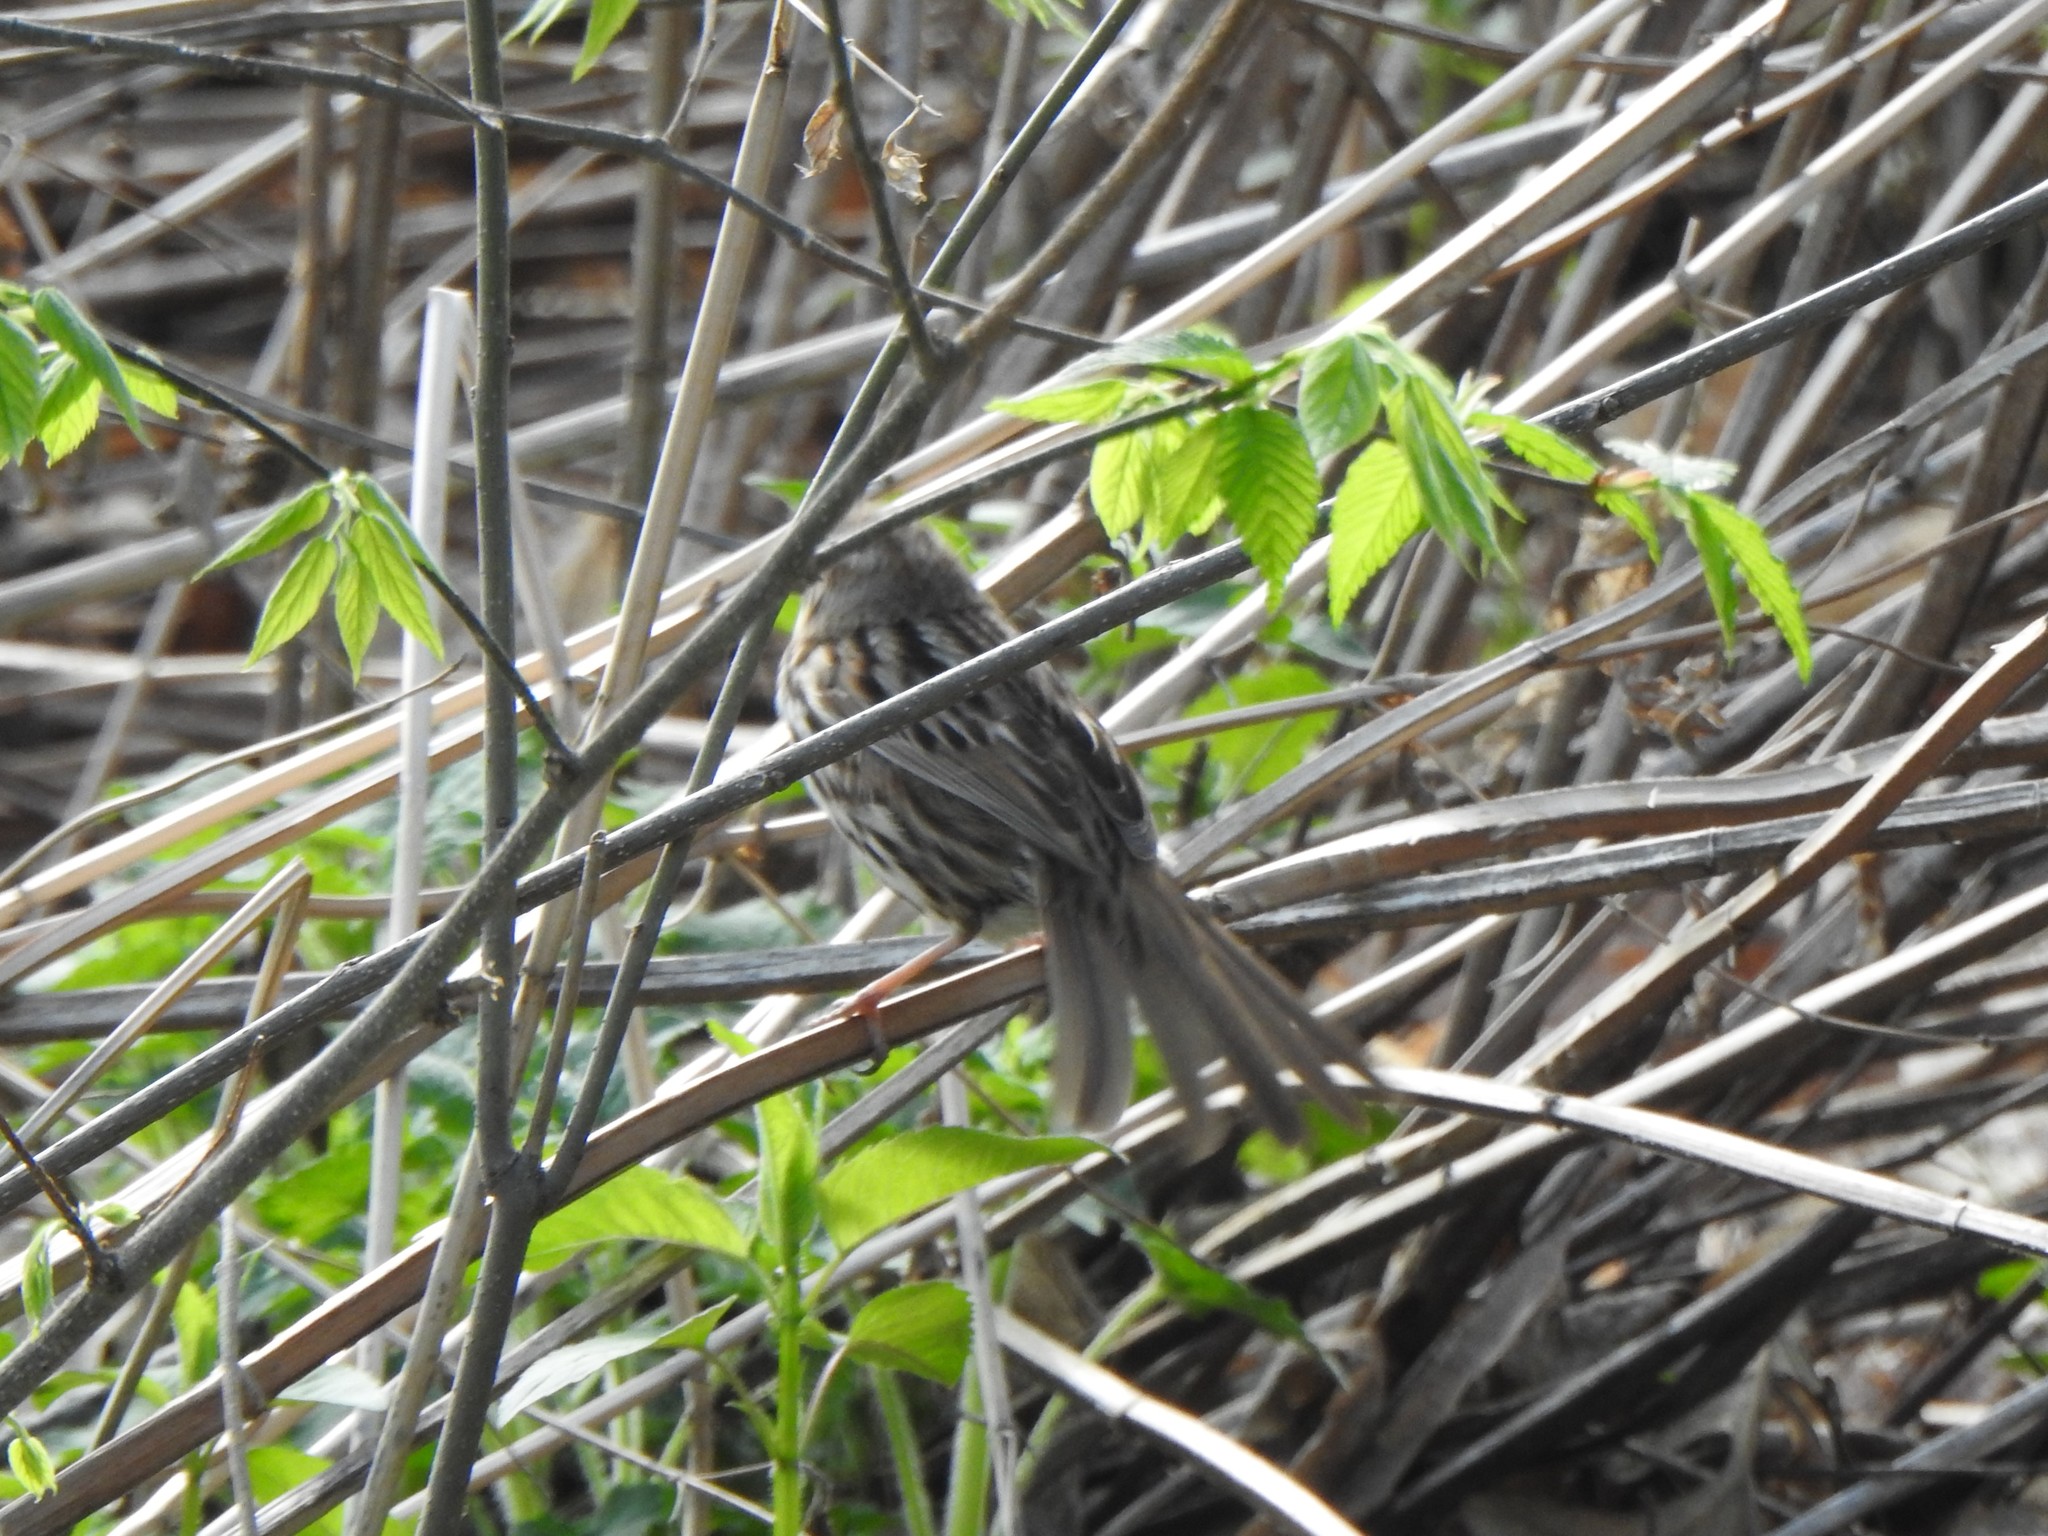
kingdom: Animalia
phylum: Chordata
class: Aves
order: Passeriformes
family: Passerellidae
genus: Melospiza
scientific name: Melospiza melodia
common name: Song sparrow
